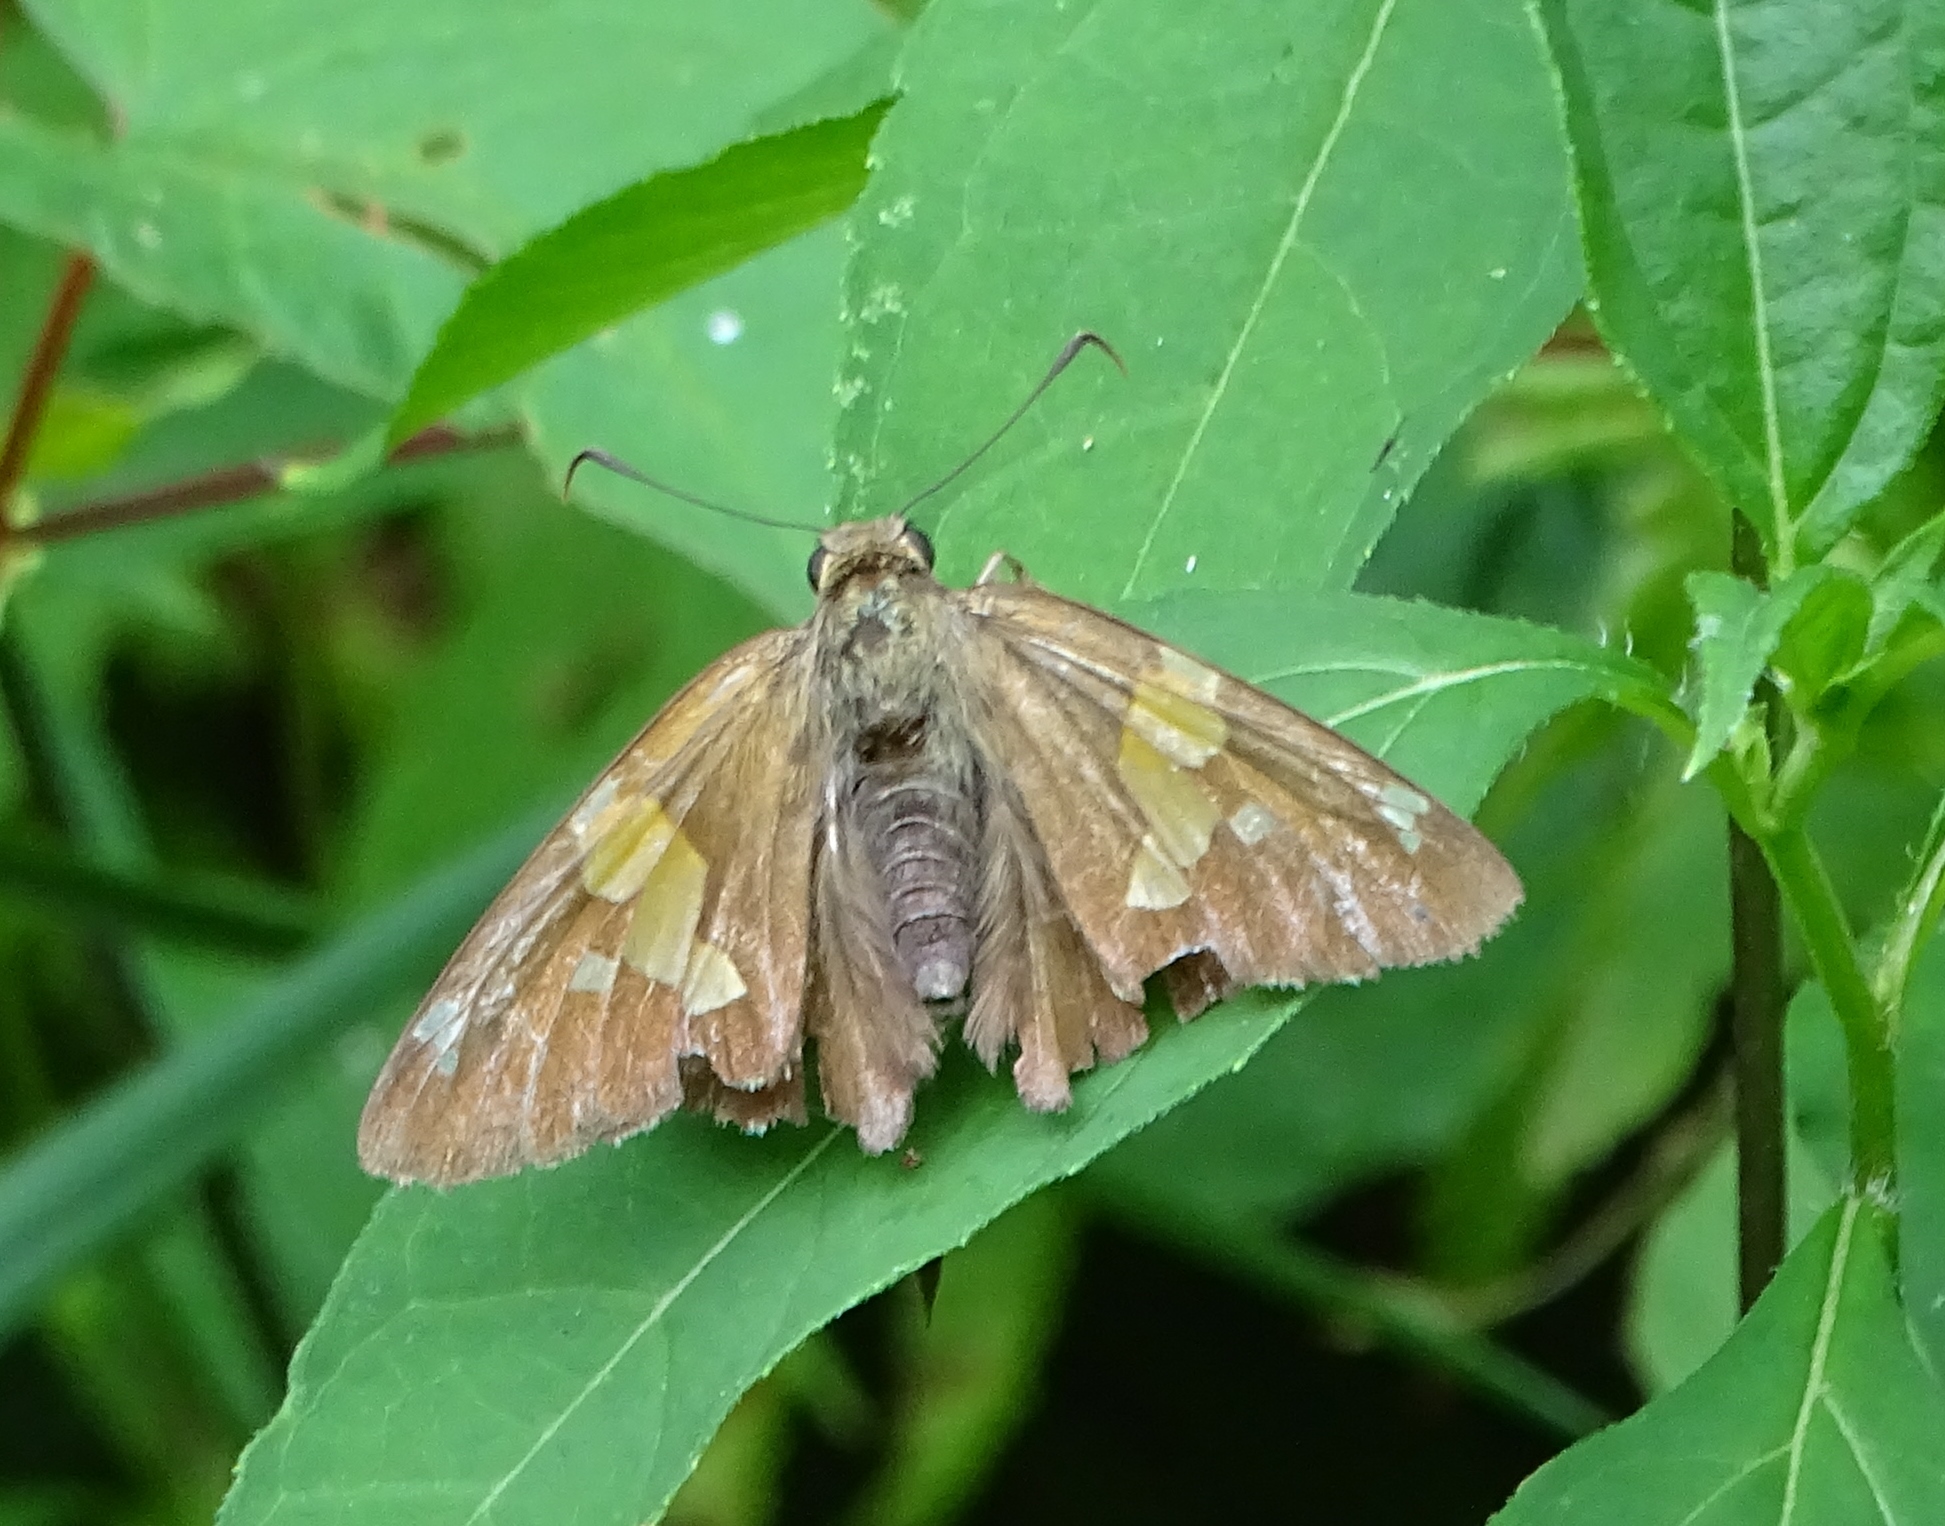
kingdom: Animalia
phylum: Arthropoda
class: Insecta
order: Lepidoptera
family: Hesperiidae
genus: Epargyreus
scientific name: Epargyreus clarus
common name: Silver-spotted skipper
